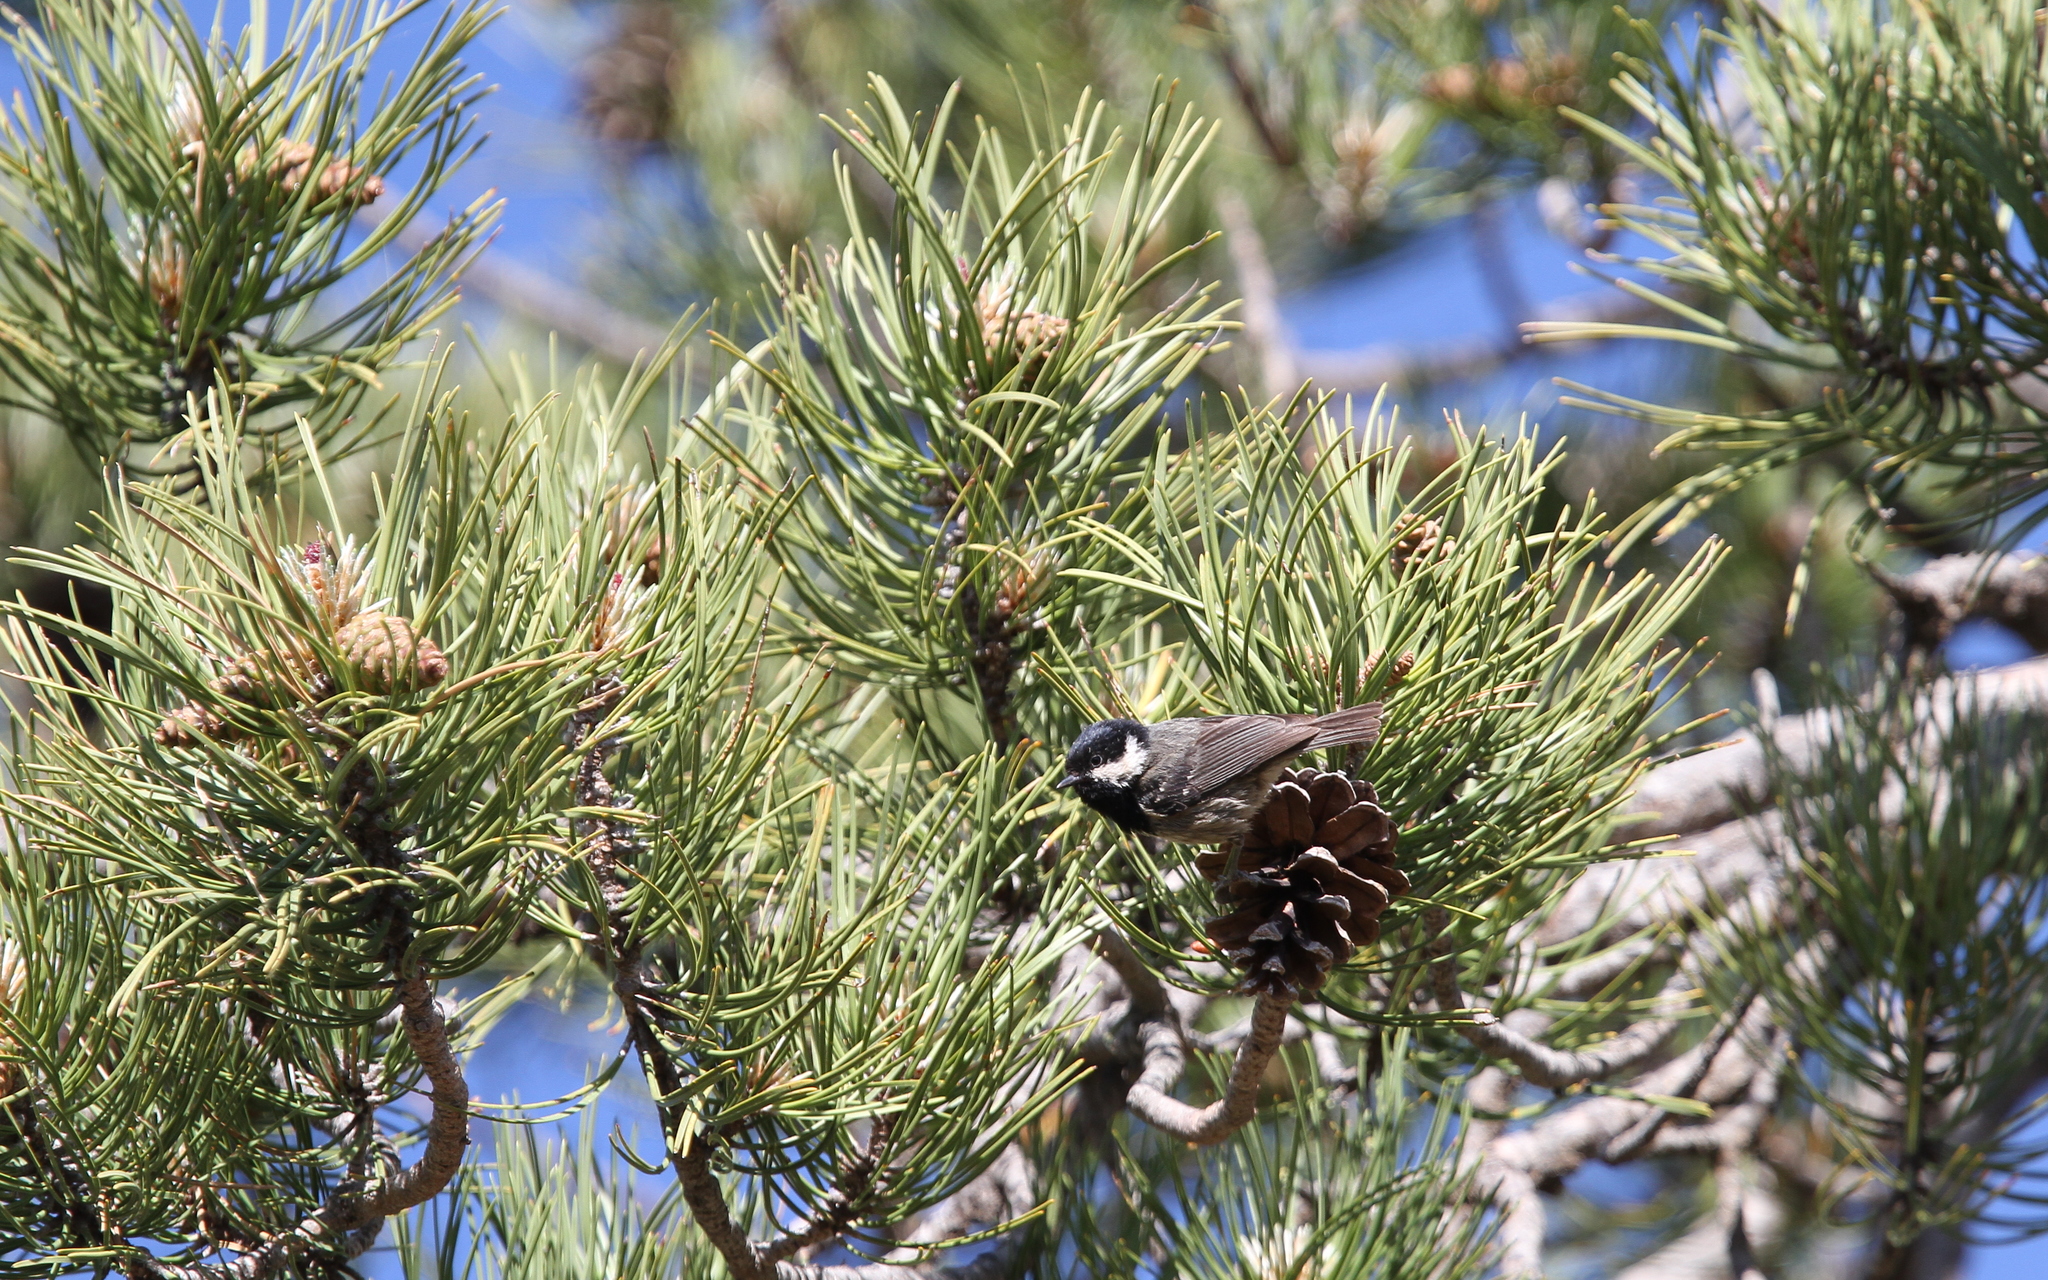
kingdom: Animalia
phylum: Chordata
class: Aves
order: Passeriformes
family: Paridae
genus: Periparus
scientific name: Periparus ater
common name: Coal tit
